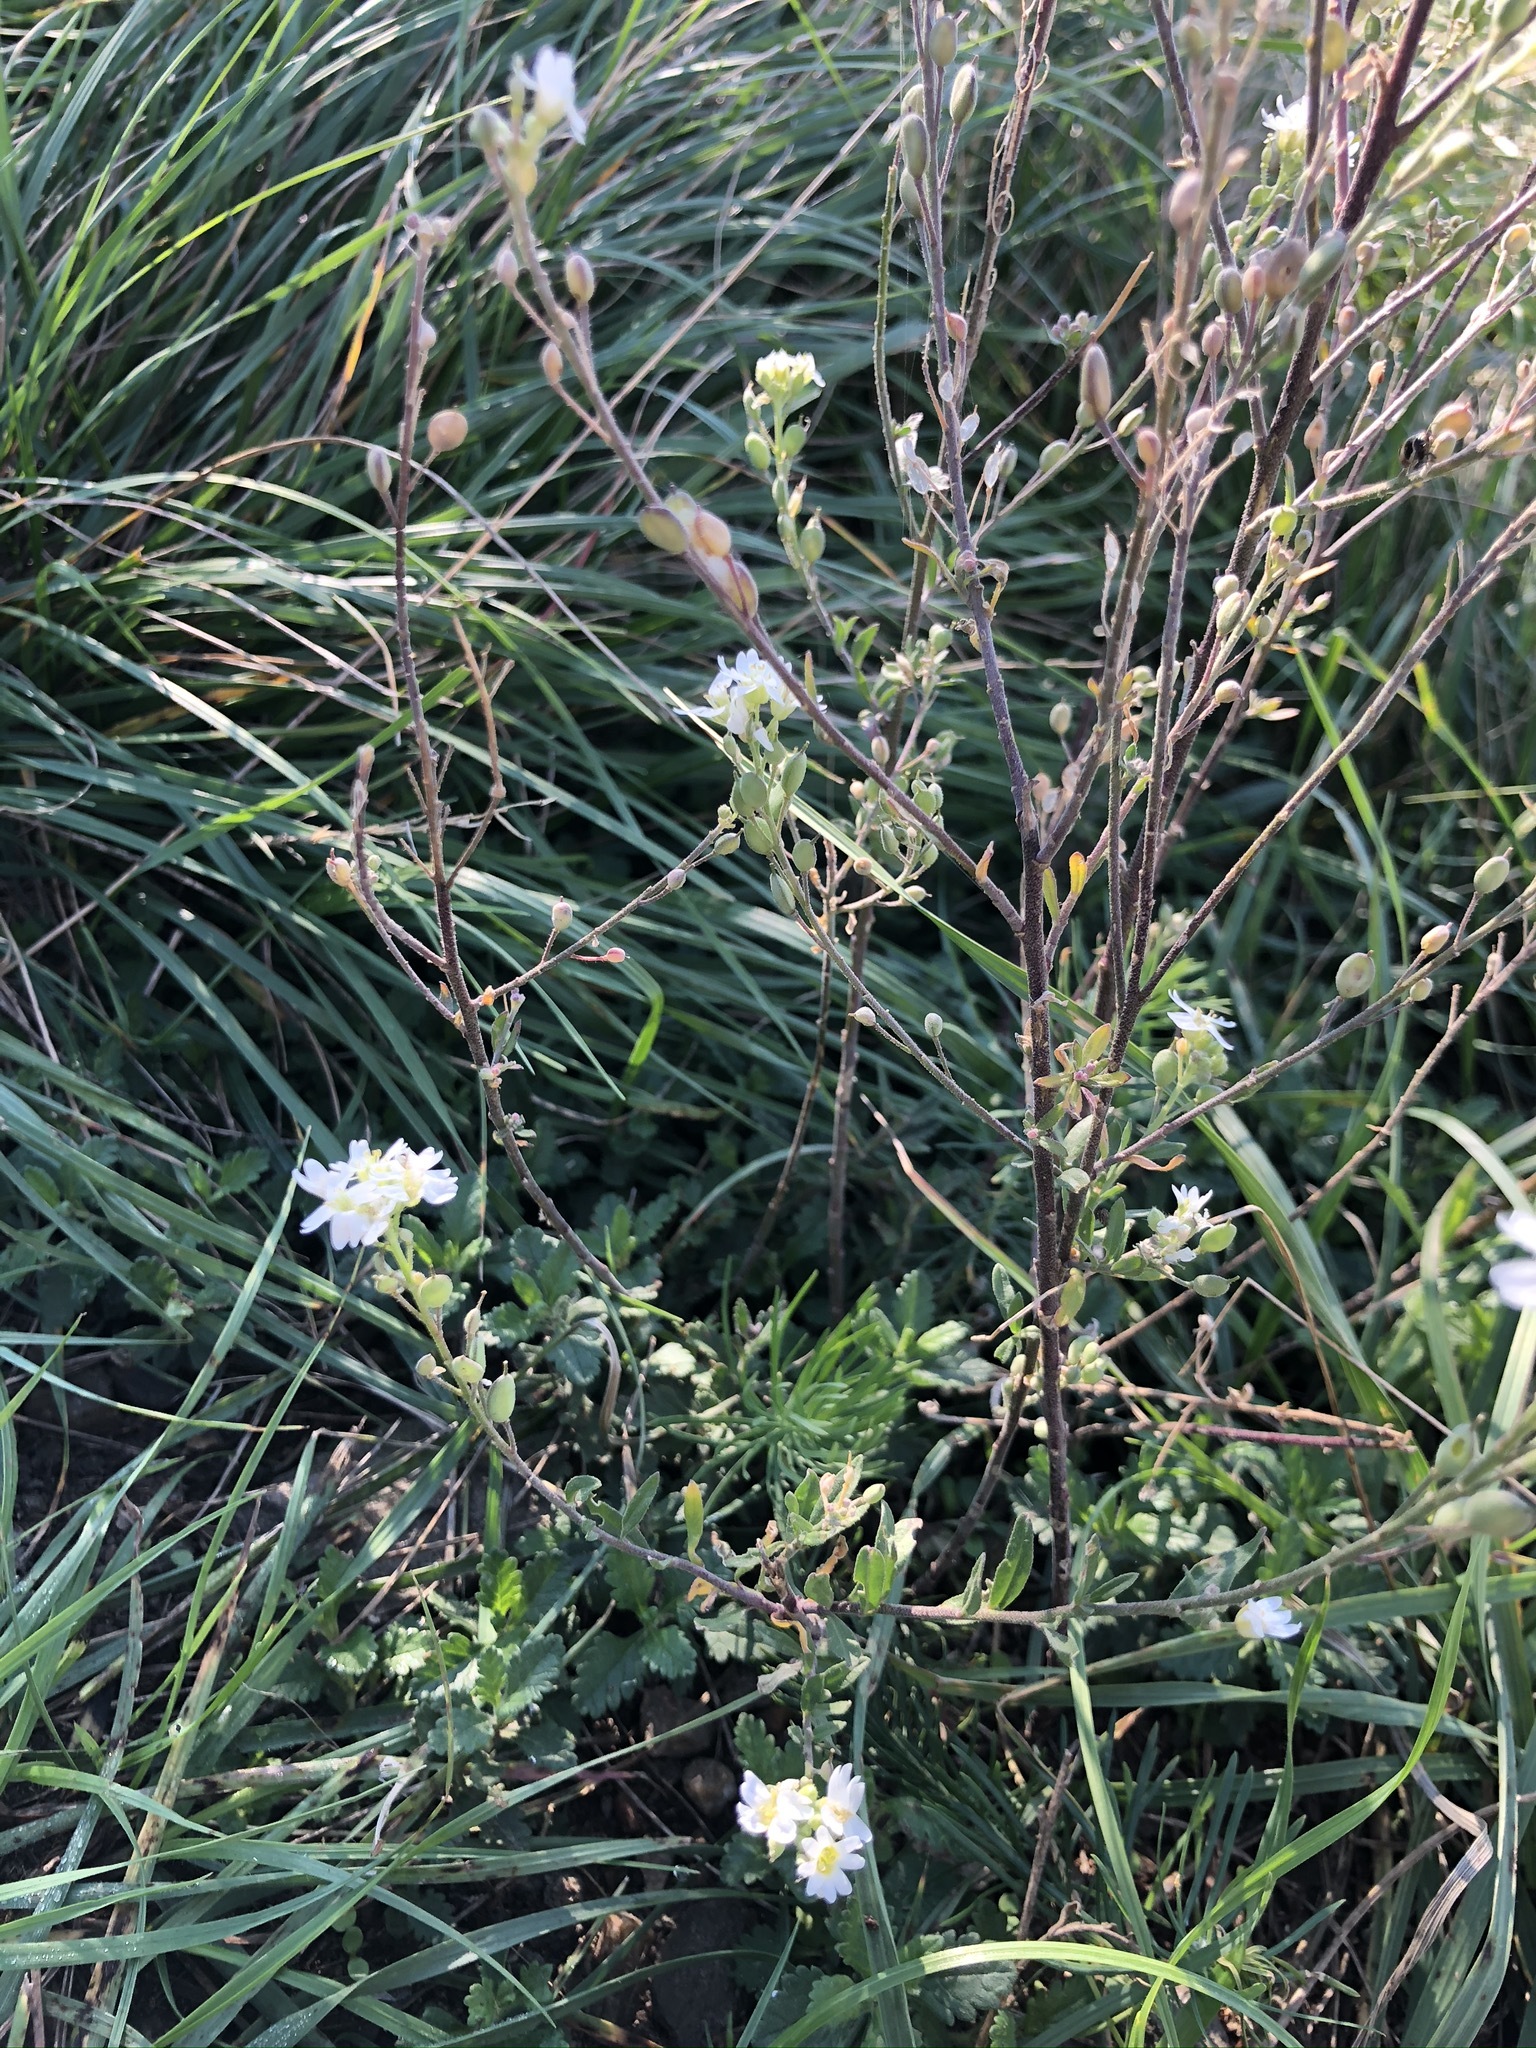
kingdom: Plantae
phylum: Tracheophyta
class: Magnoliopsida
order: Brassicales
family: Brassicaceae
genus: Berteroa
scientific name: Berteroa incana
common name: Hoary alison
